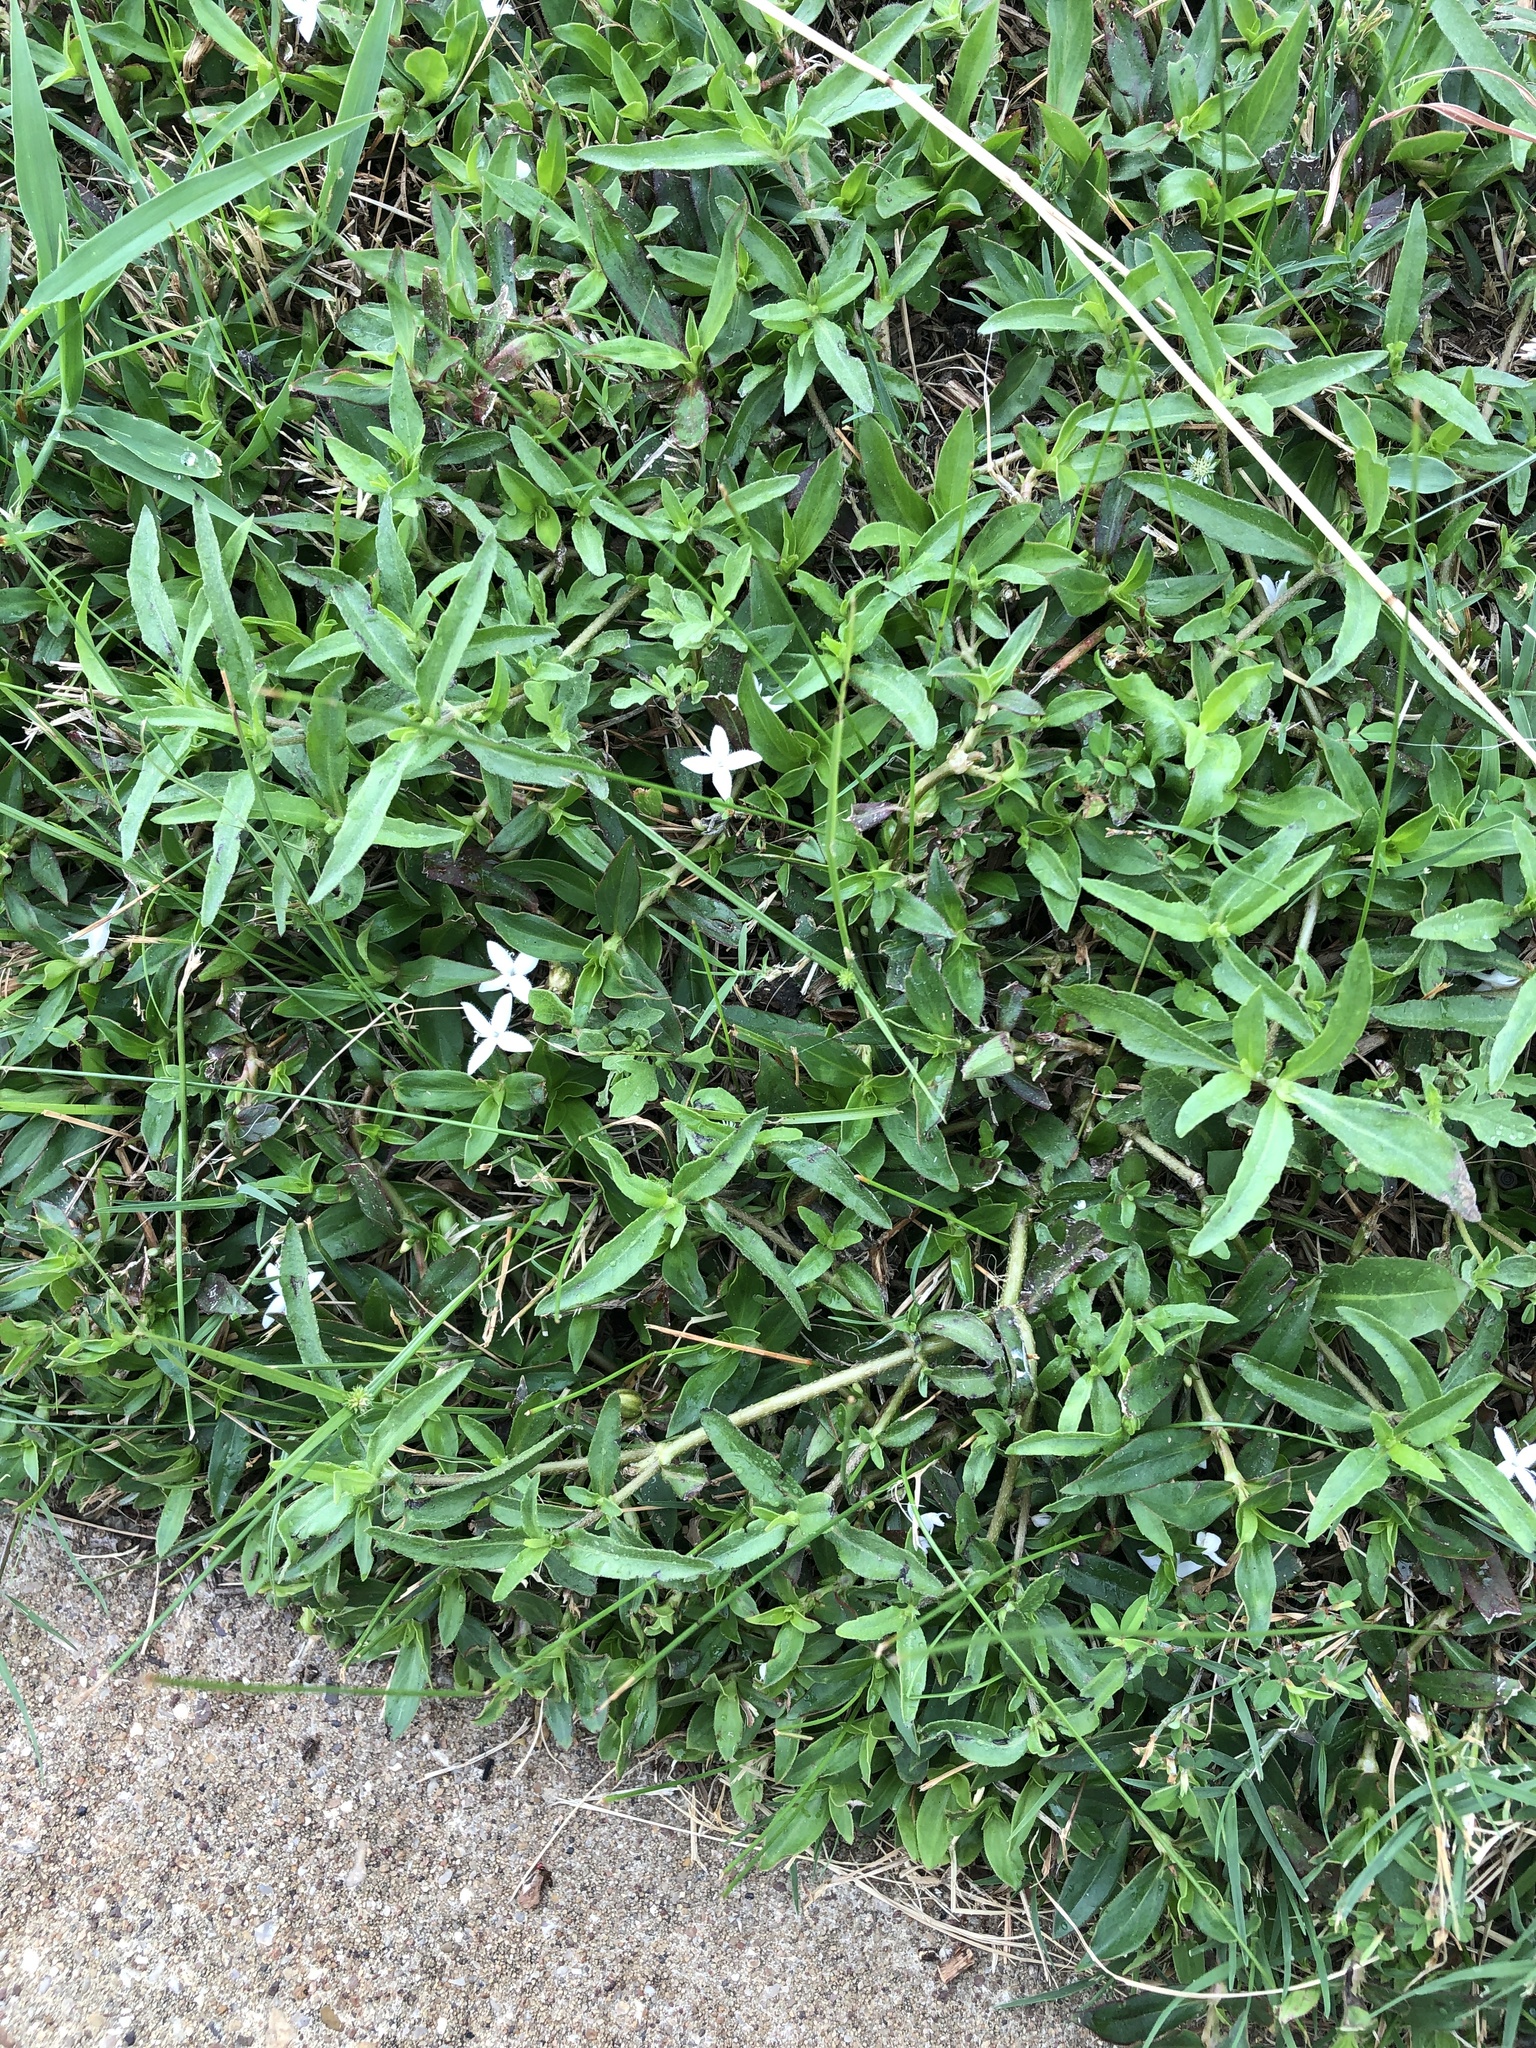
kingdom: Plantae
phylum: Tracheophyta
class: Magnoliopsida
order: Gentianales
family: Rubiaceae
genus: Diodia
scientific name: Diodia virginiana
